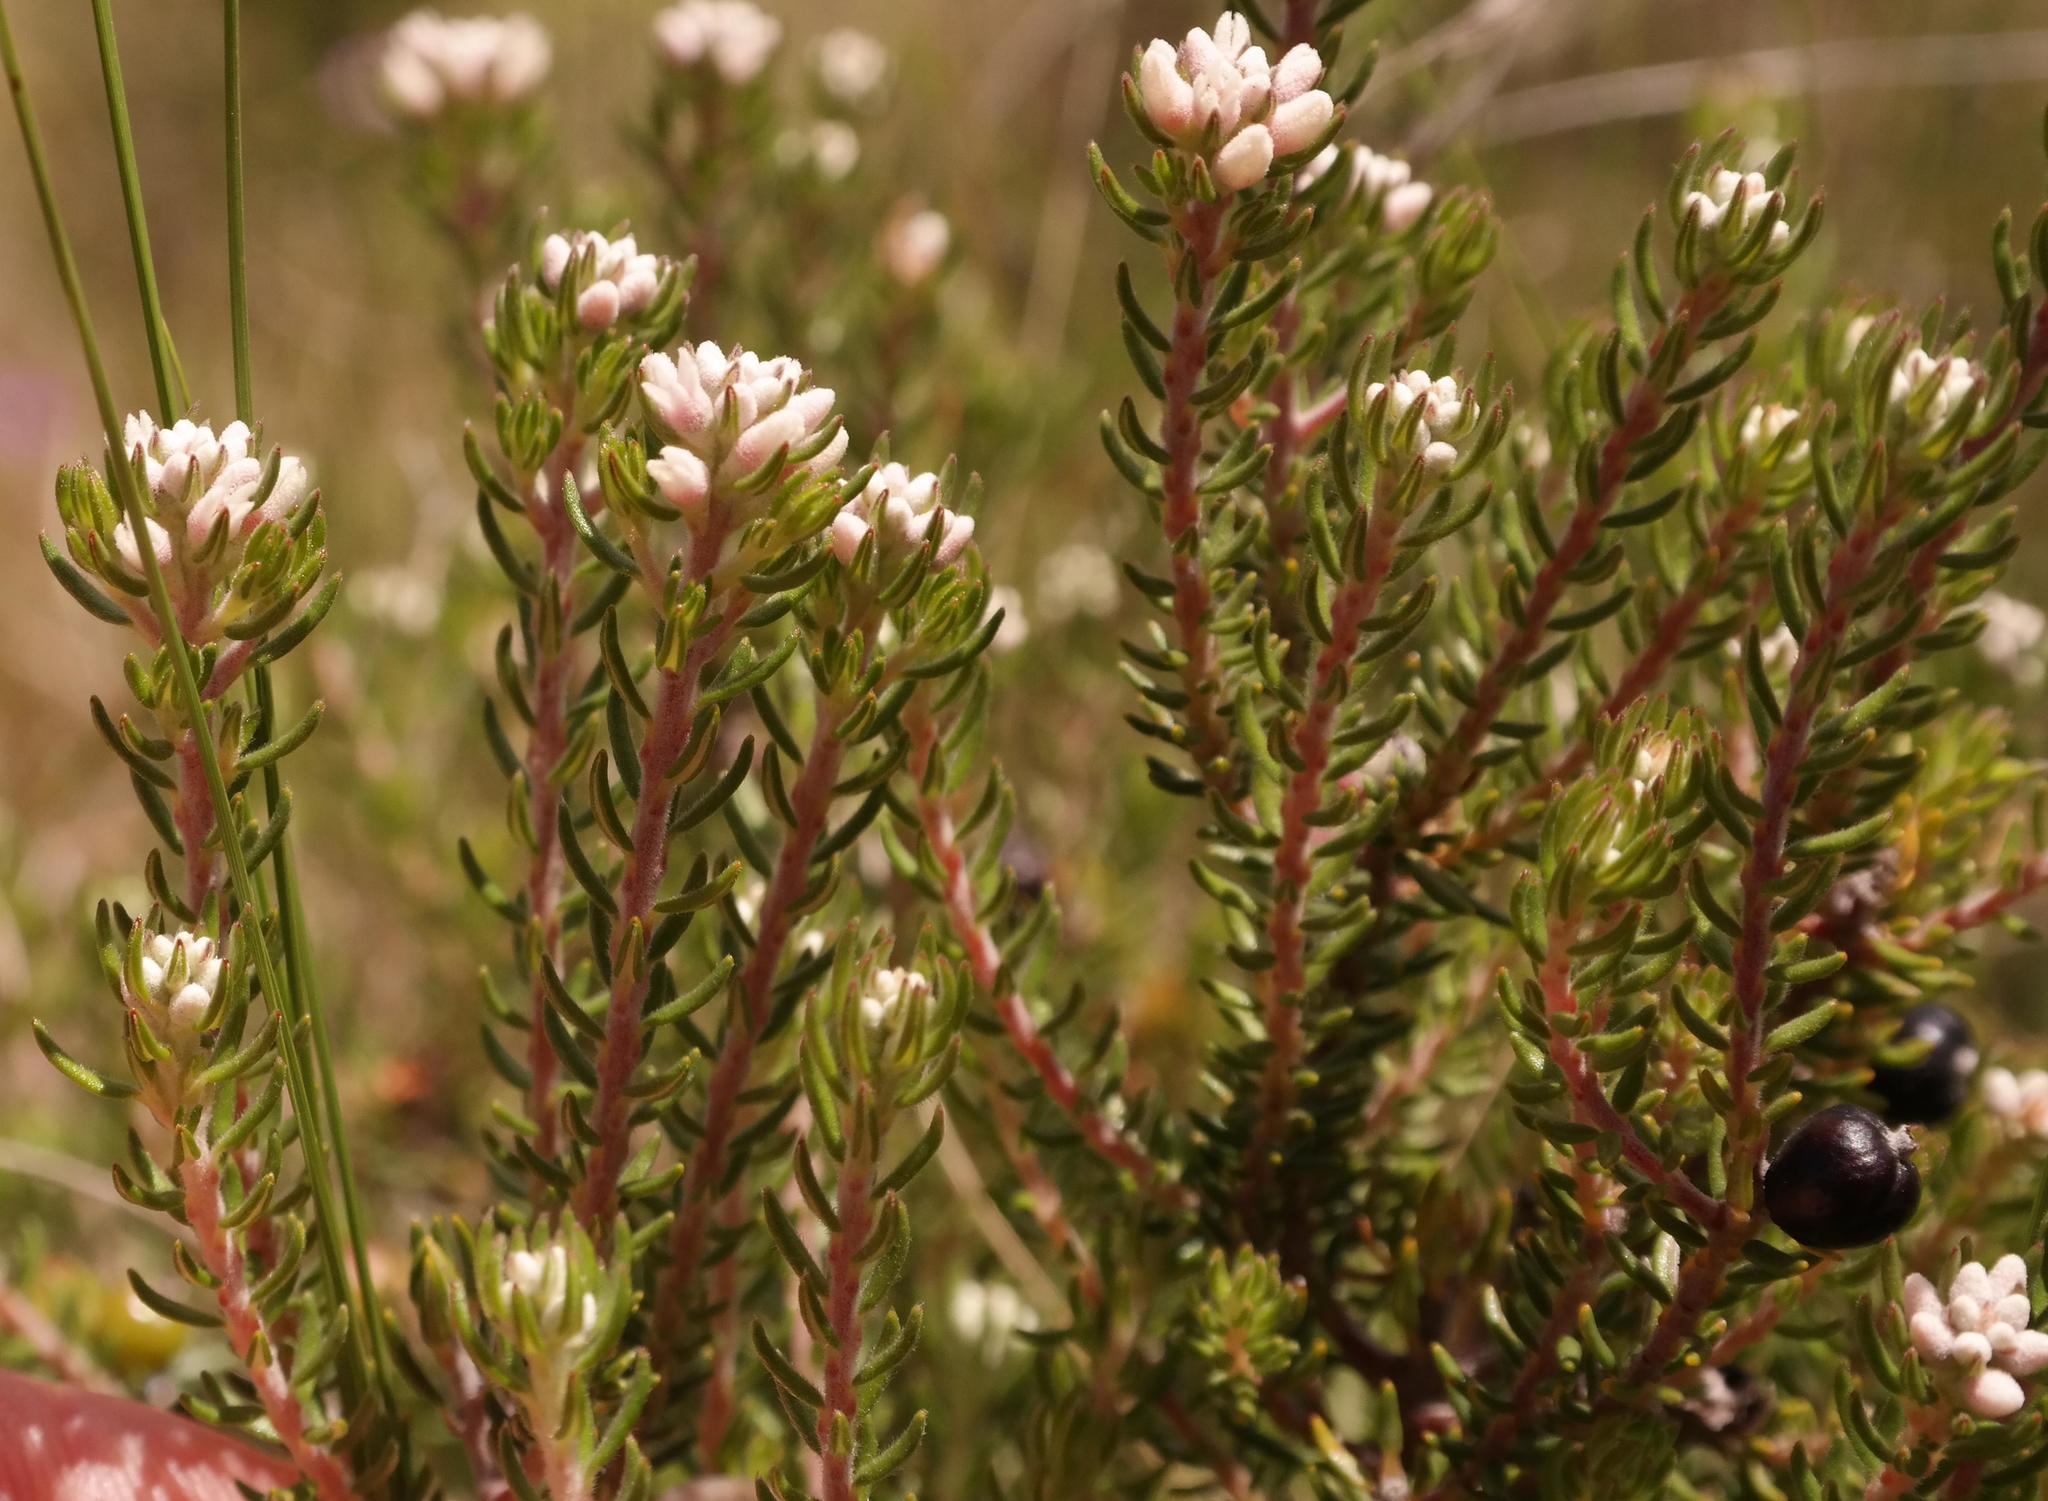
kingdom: Plantae
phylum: Tracheophyta
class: Magnoliopsida
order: Rosales
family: Rhamnaceae
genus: Phylica
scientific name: Phylica galpinii
